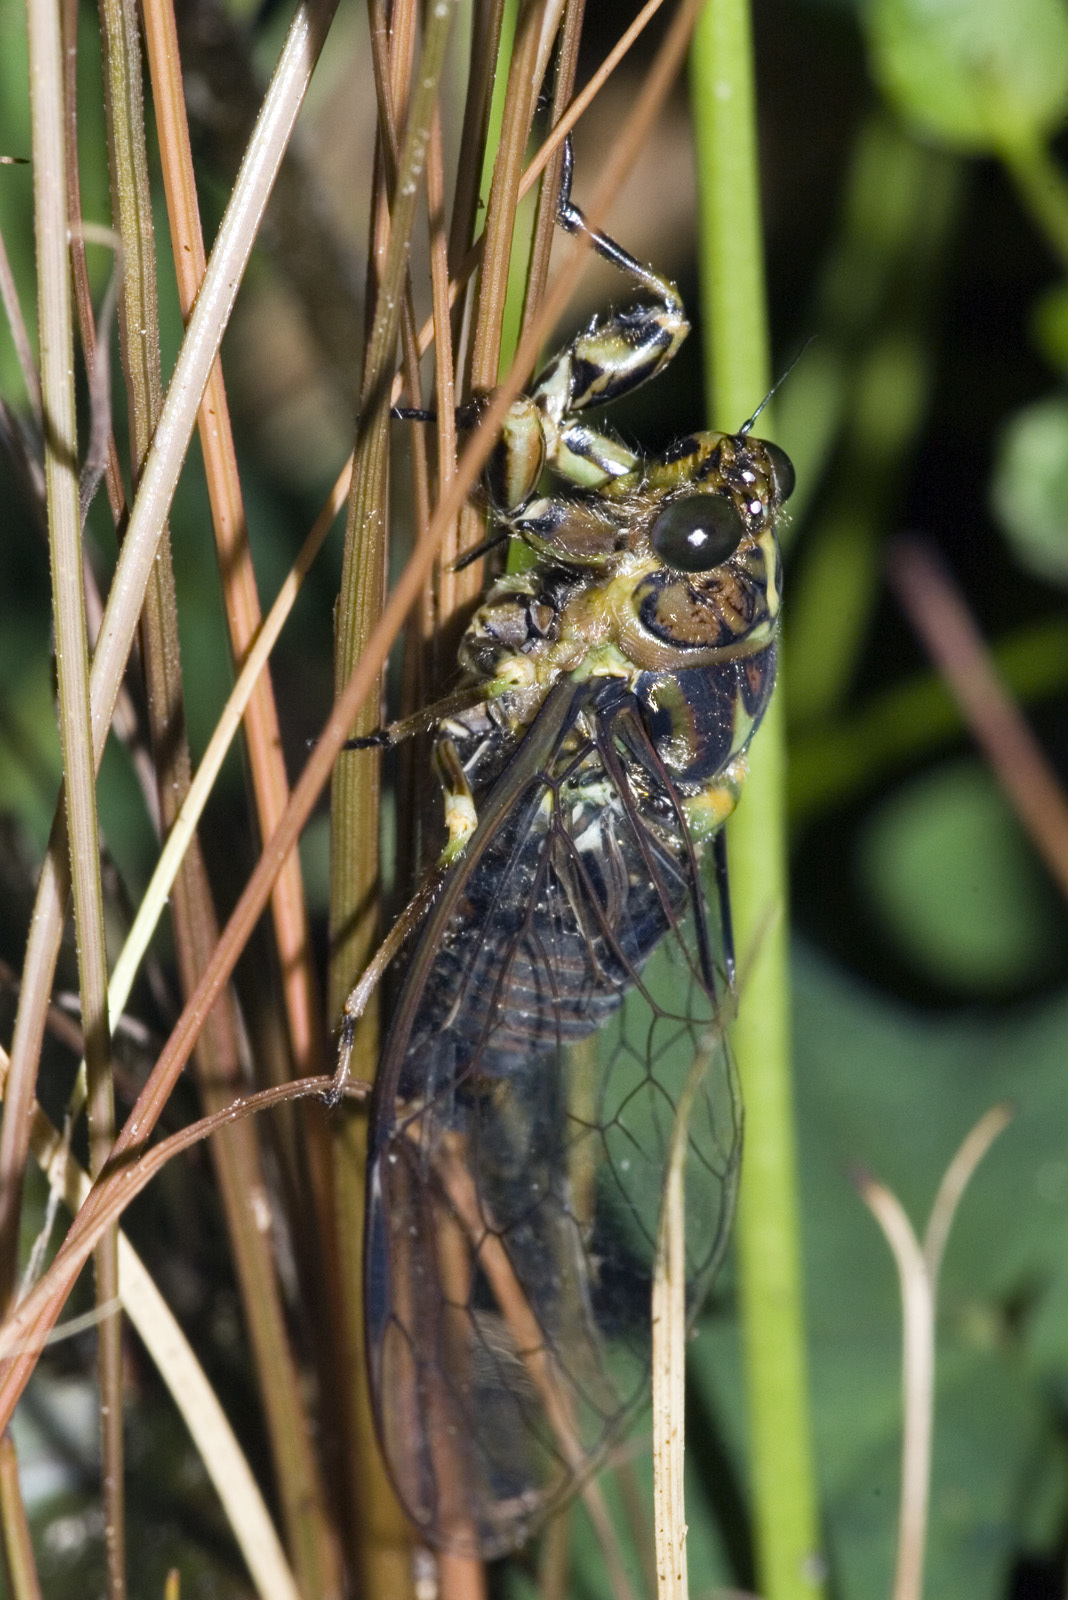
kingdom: Animalia
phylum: Arthropoda
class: Insecta
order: Hemiptera
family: Cicadidae
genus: Kikihia
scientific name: Kikihia cauta
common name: Greater bronze cicada
